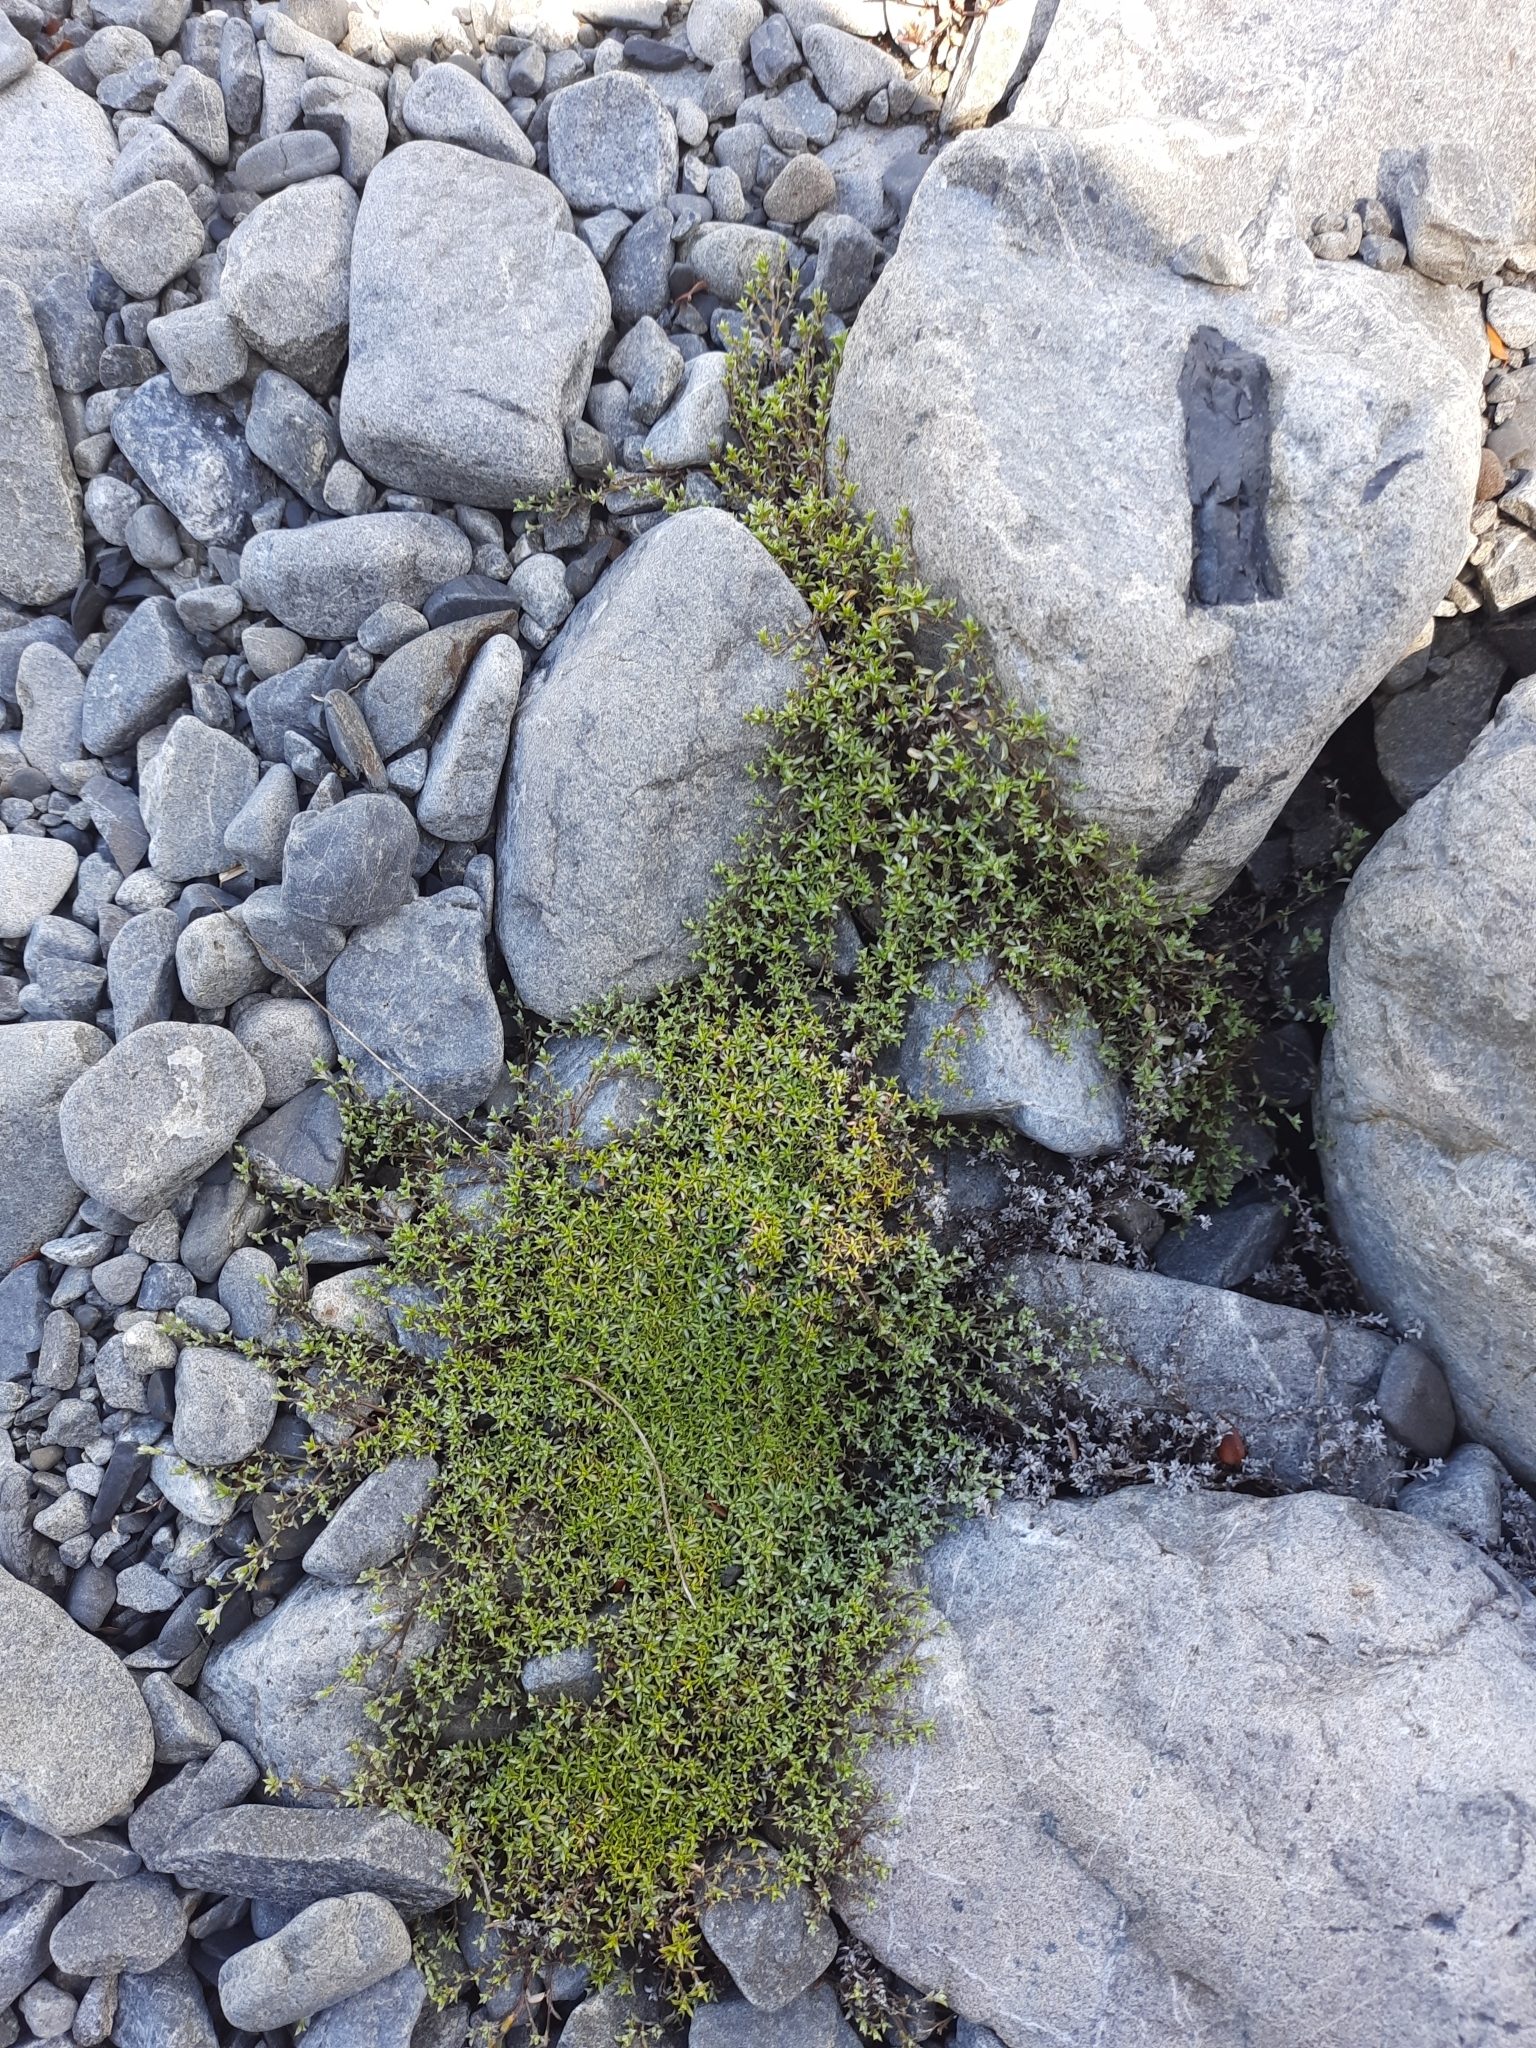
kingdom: Plantae
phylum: Tracheophyta
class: Magnoliopsida
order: Asterales
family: Asteraceae
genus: Raoulia
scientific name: Raoulia tenuicaulis
